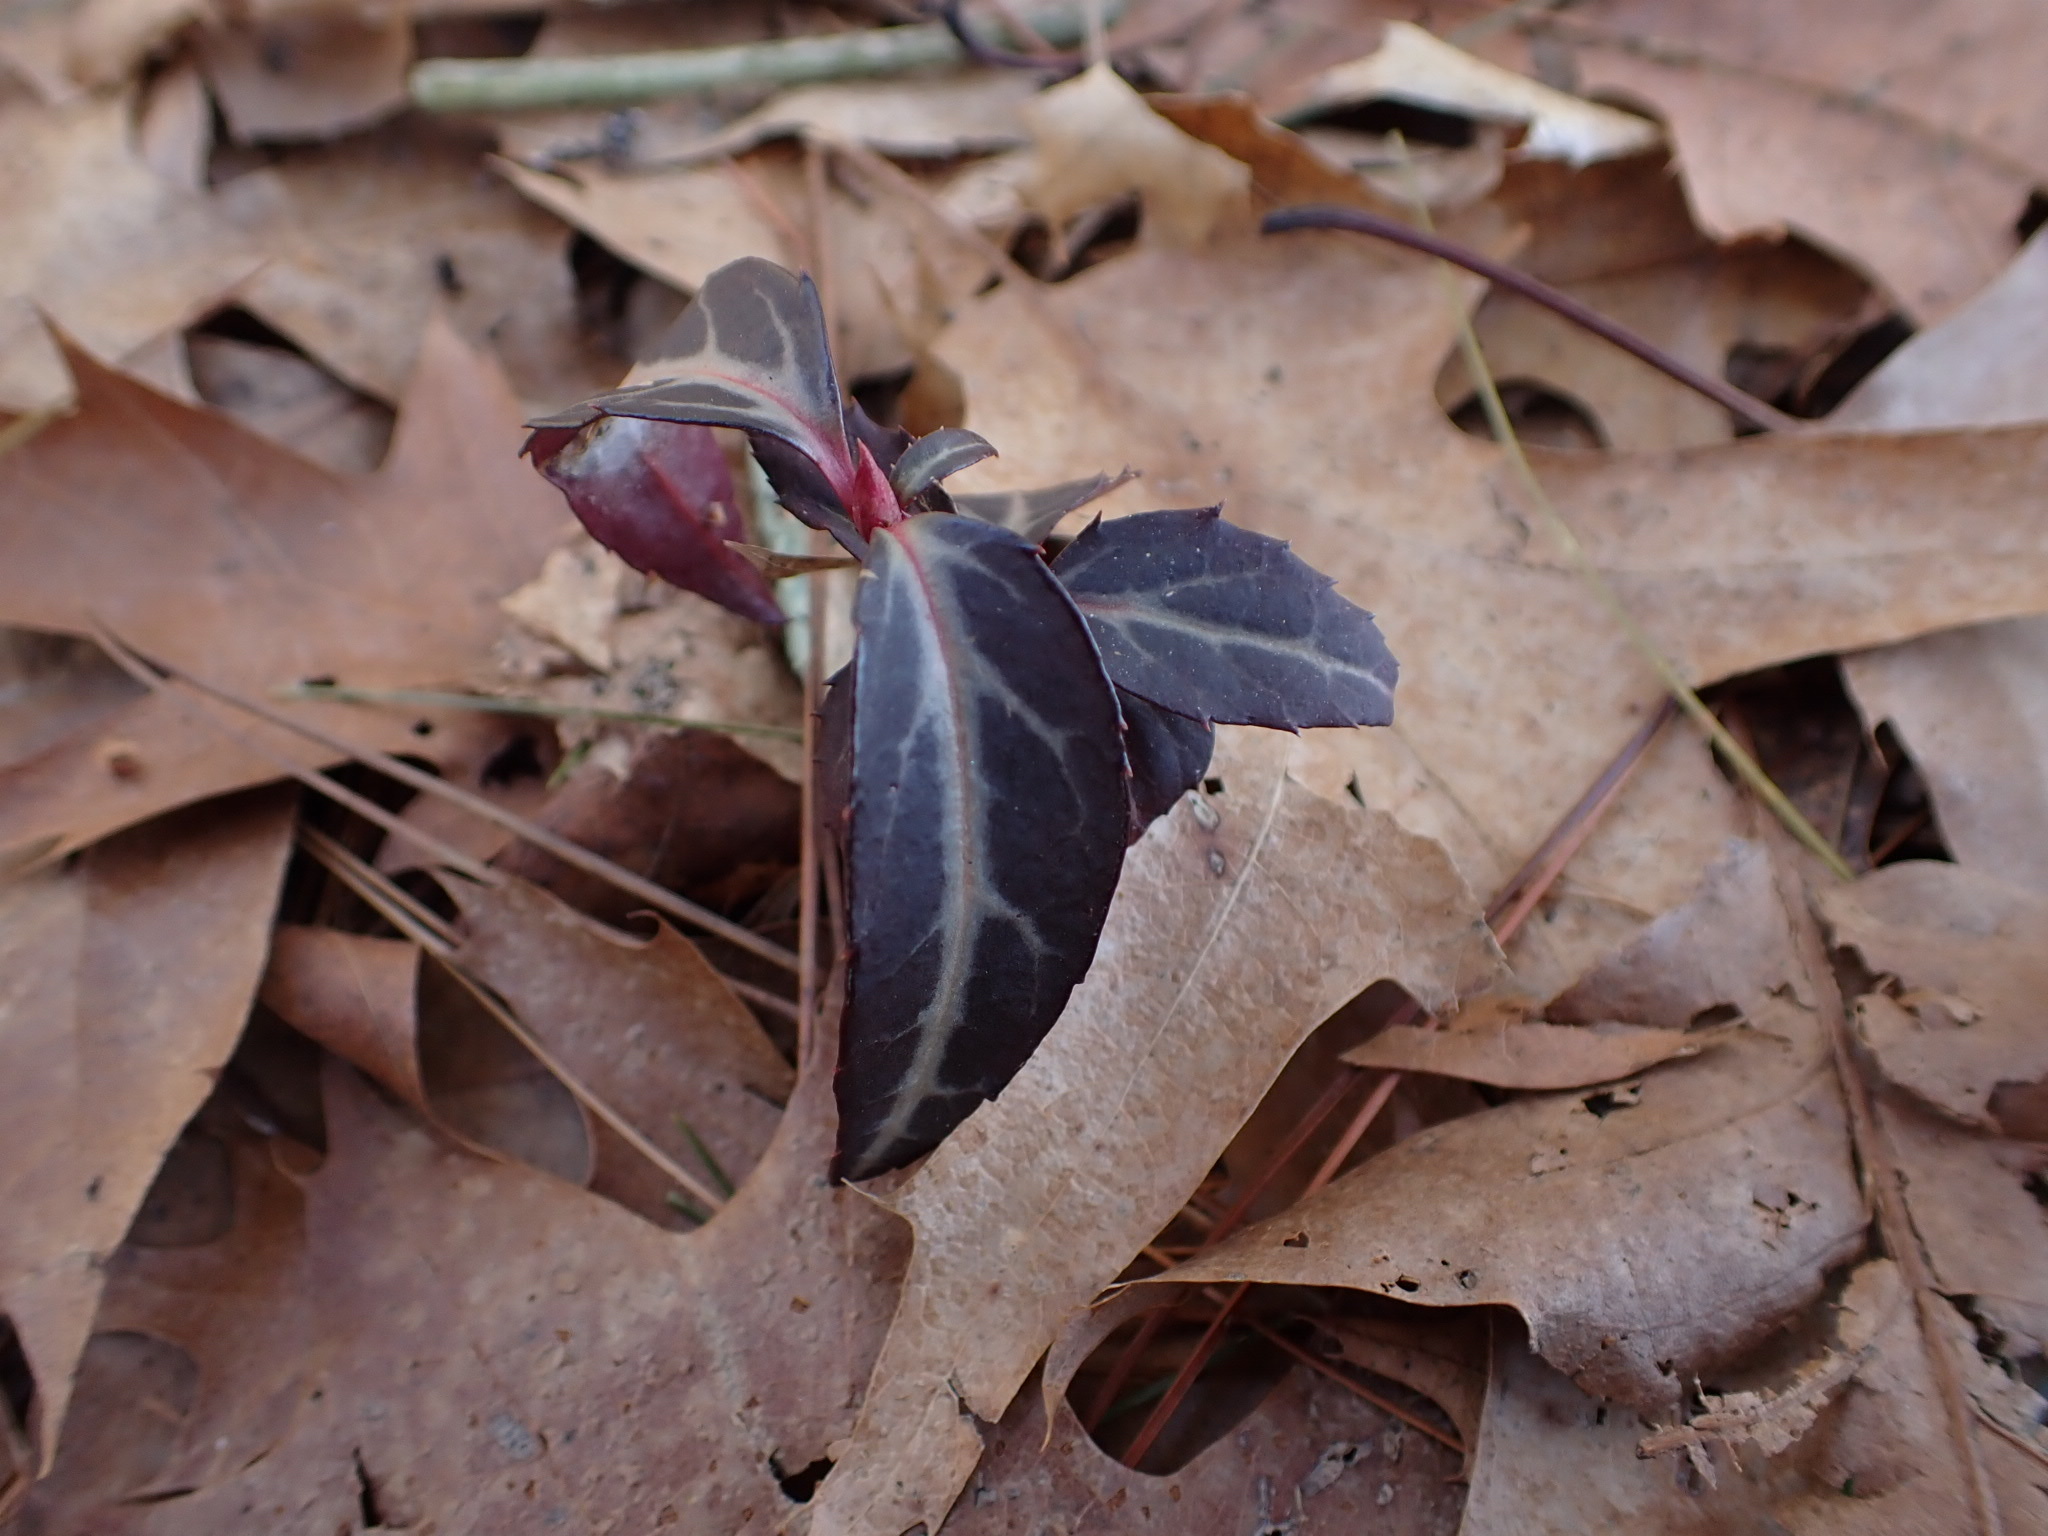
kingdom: Plantae
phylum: Tracheophyta
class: Magnoliopsida
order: Ericales
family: Ericaceae
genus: Chimaphila
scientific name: Chimaphila maculata
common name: Spotted pipsissewa
